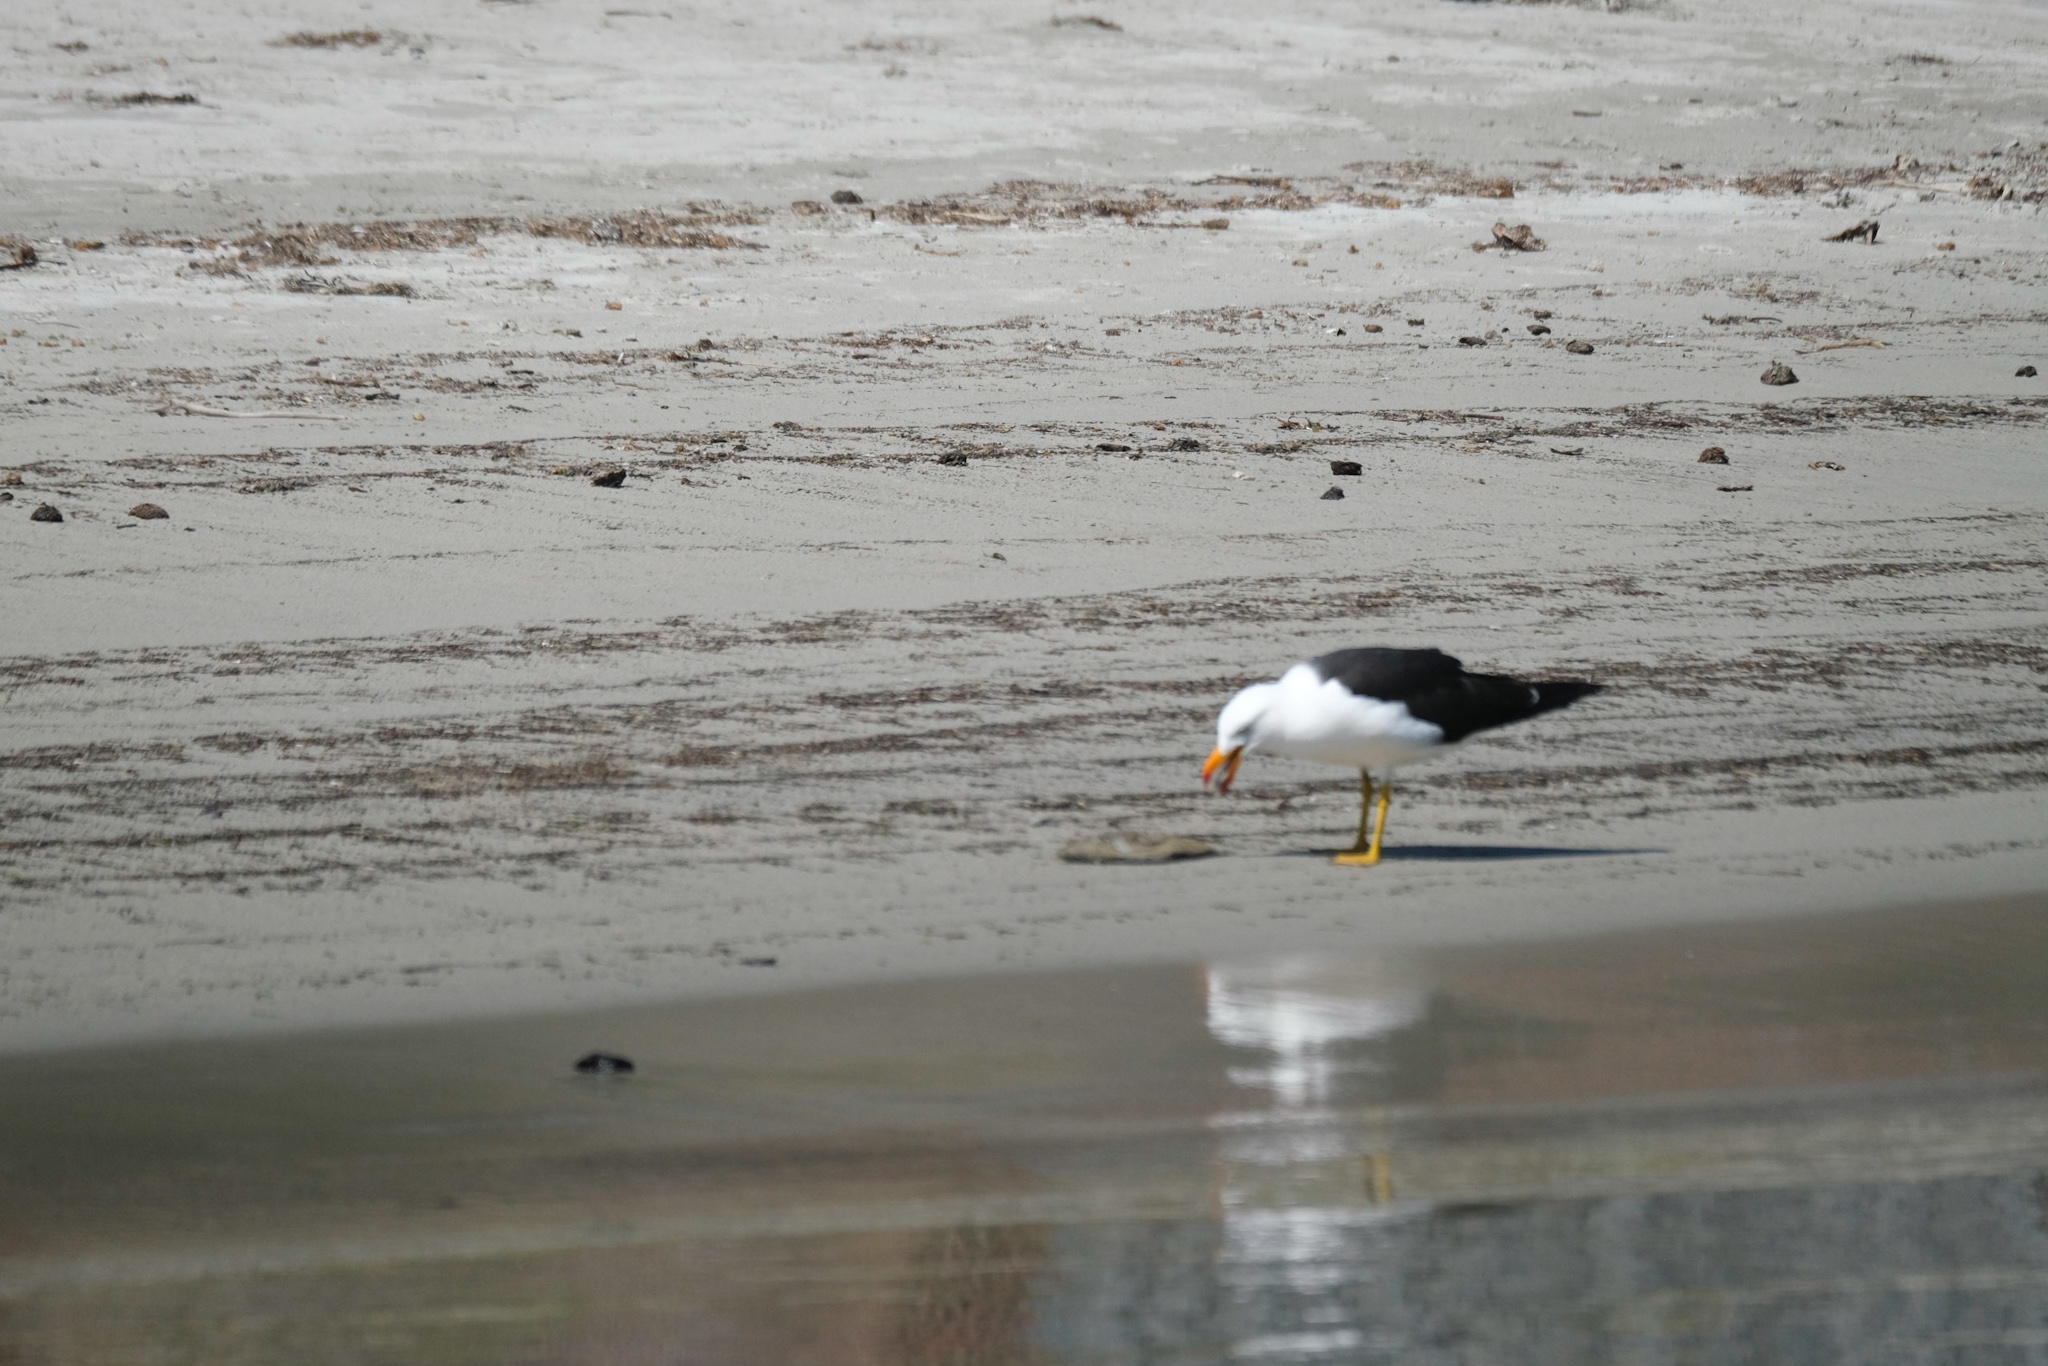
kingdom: Animalia
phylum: Chordata
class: Aves
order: Charadriiformes
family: Laridae
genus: Larus
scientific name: Larus pacificus
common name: Pacific gull
